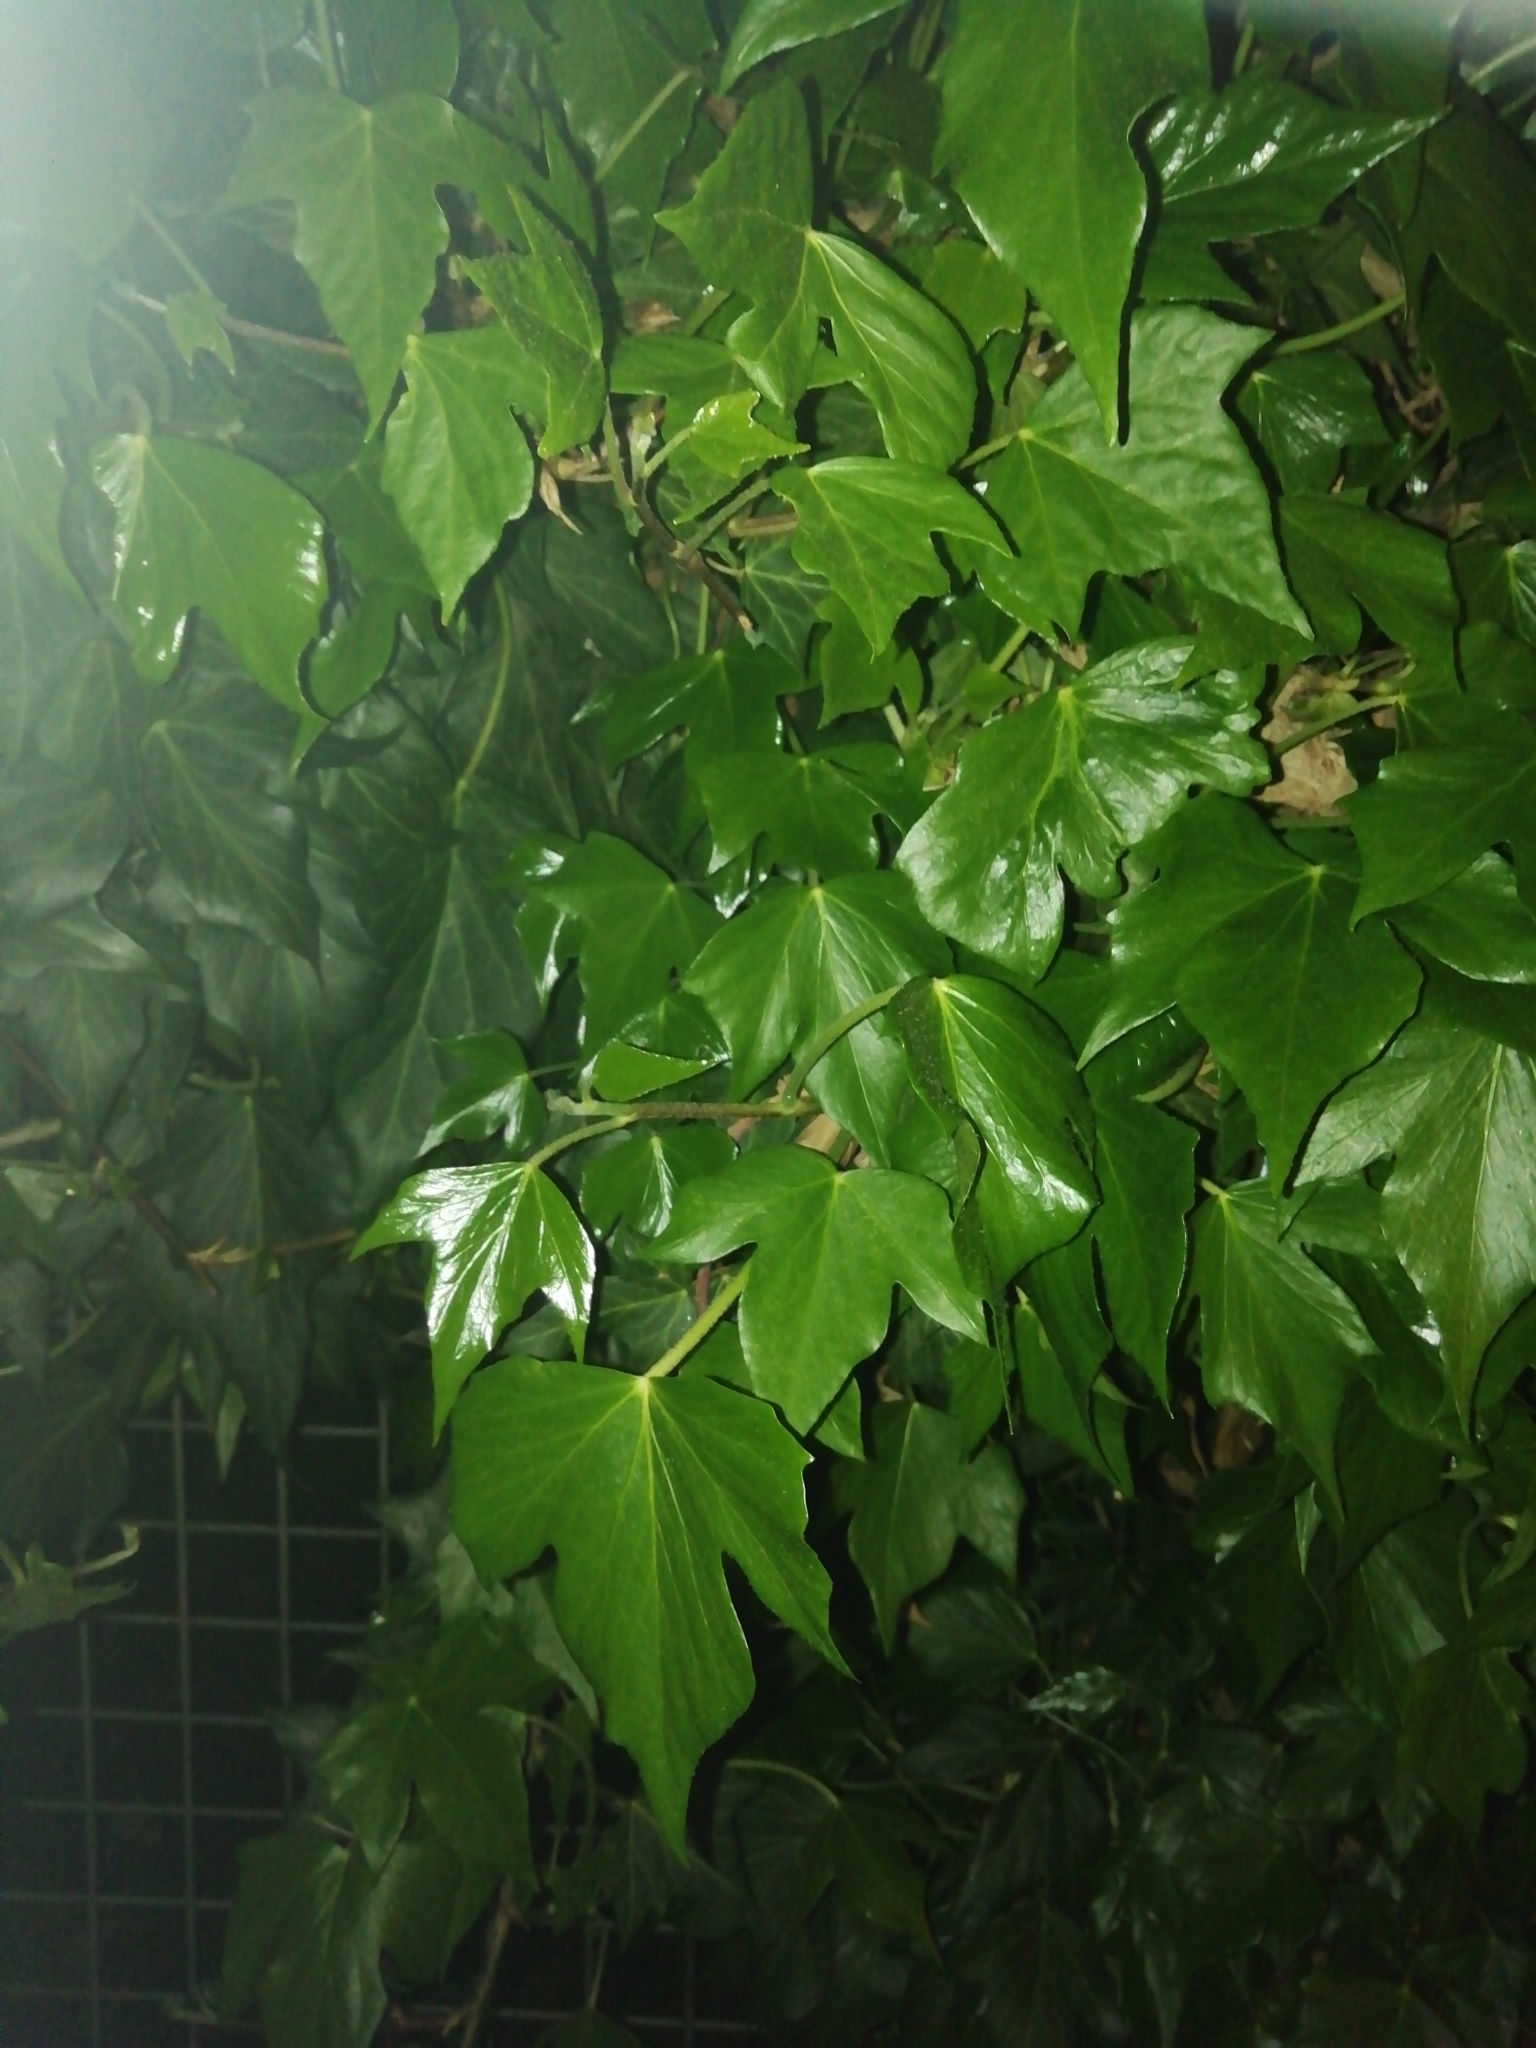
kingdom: Plantae
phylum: Tracheophyta
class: Magnoliopsida
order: Apiales
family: Araliaceae
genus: Hedera
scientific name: Hedera helix
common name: Ivy
